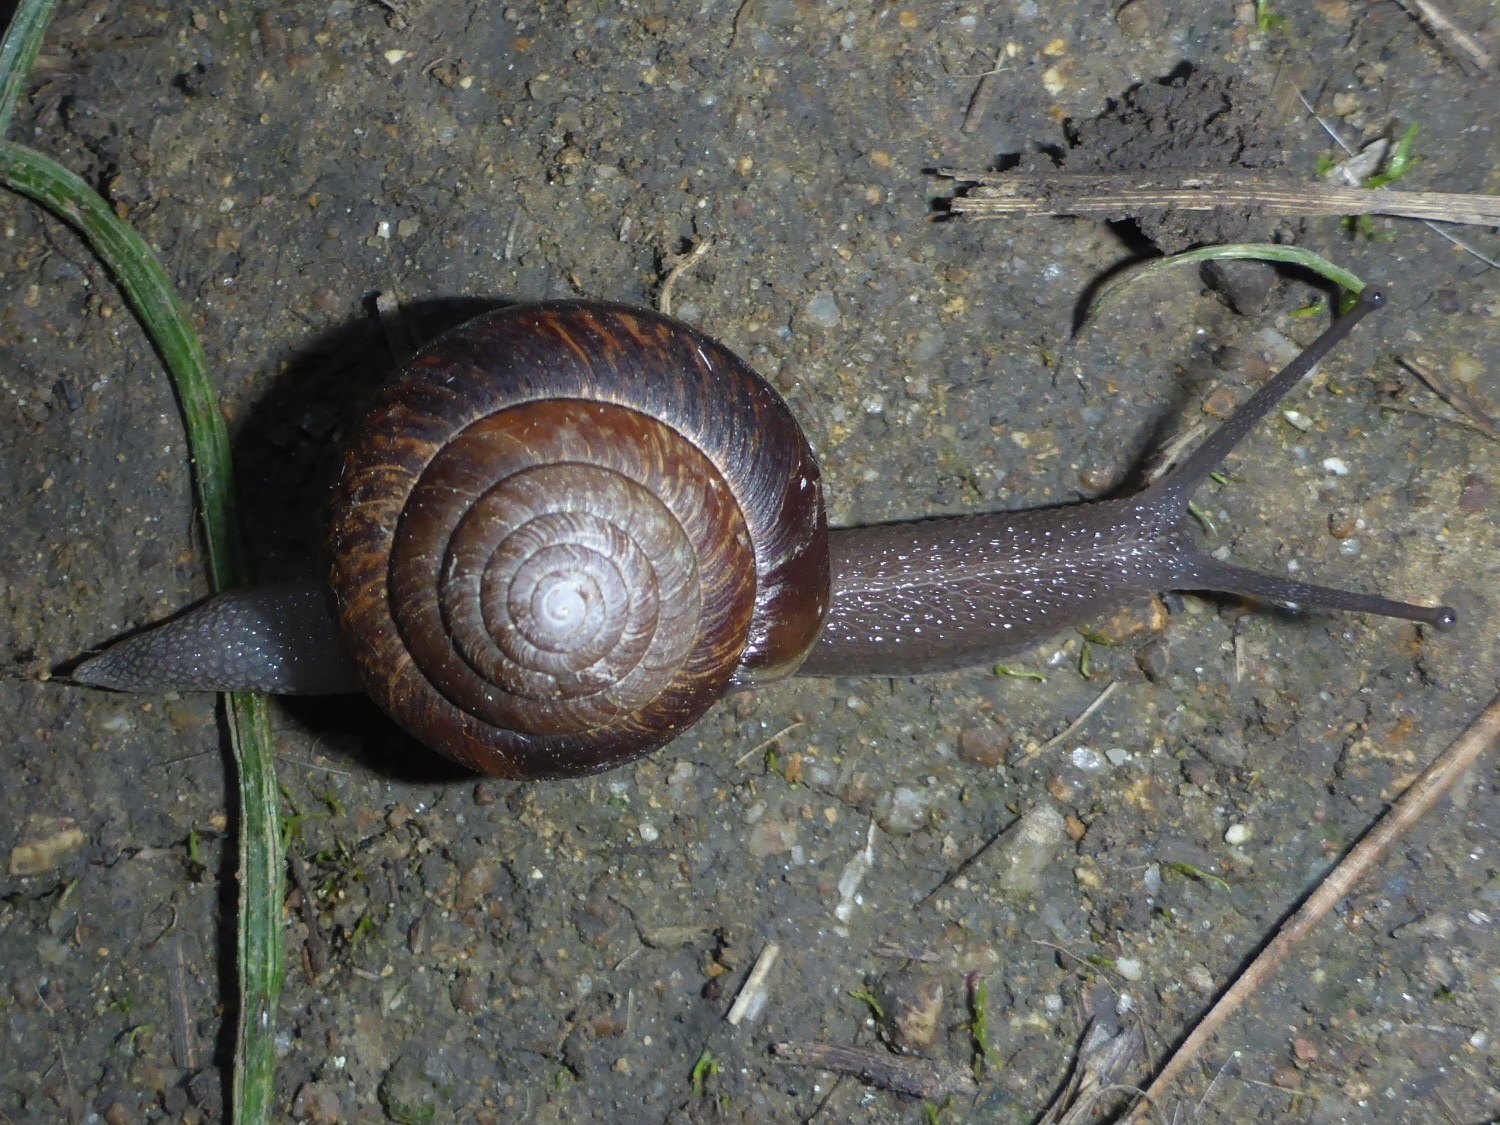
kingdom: Animalia
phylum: Mollusca
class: Gastropoda
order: Stylommatophora
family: Xanthonychidae
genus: Helminthoglypta
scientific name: Helminthoglypta arrosa
